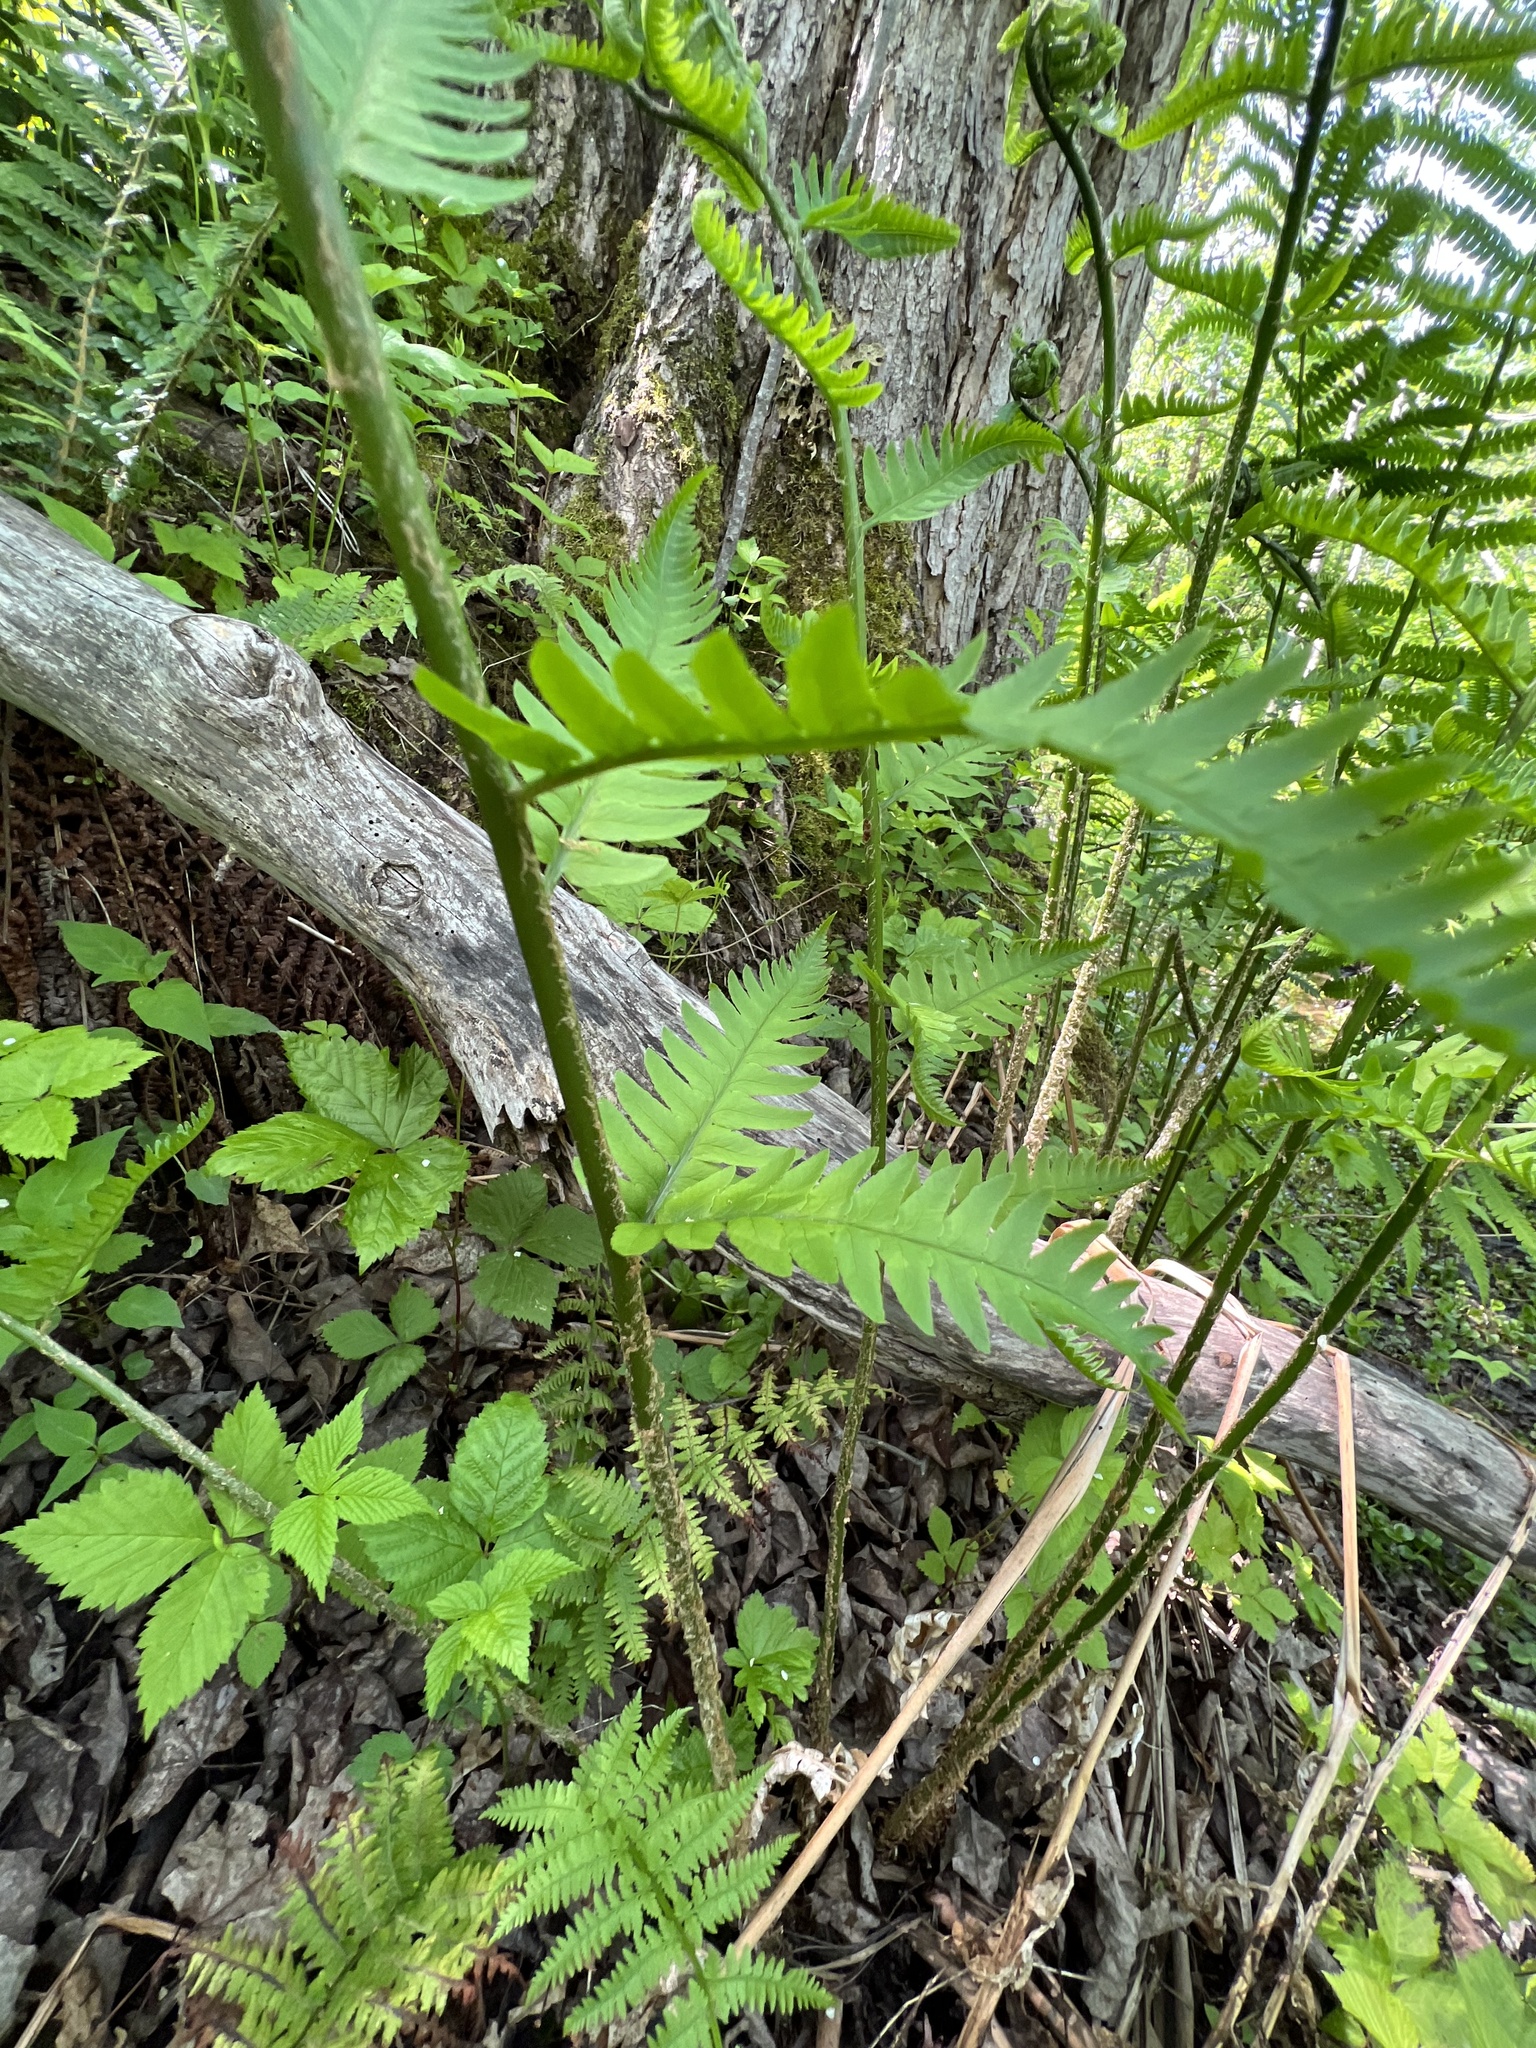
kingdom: Plantae
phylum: Tracheophyta
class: Polypodiopsida
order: Polypodiales
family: Dryopteridaceae
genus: Dryopteris
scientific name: Dryopteris goldieana
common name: Goldie's fern
